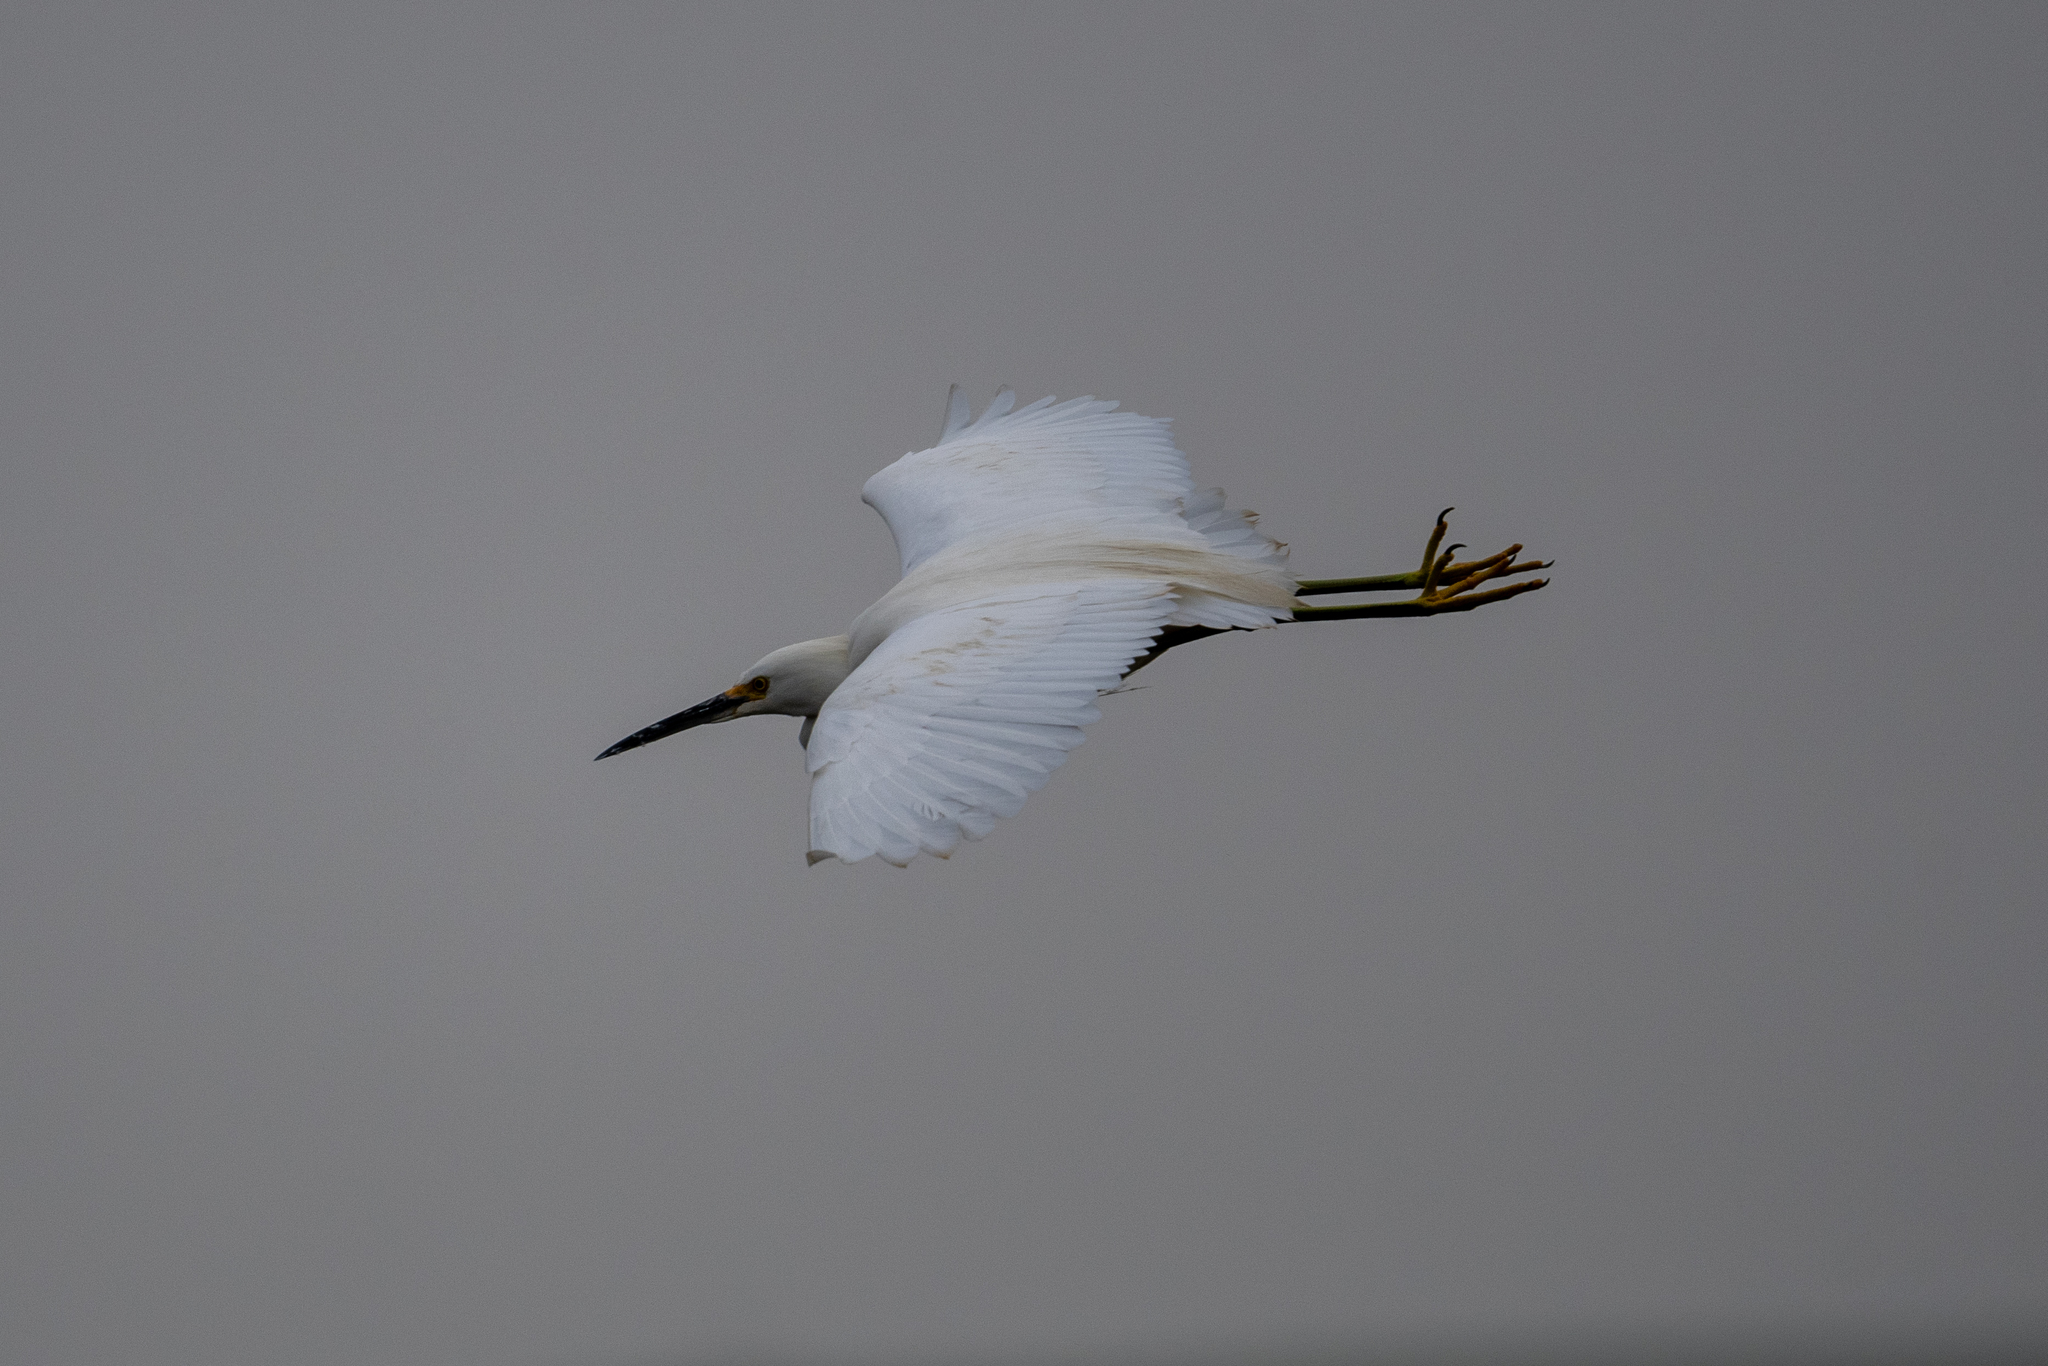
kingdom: Animalia
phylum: Chordata
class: Aves
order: Pelecaniformes
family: Ardeidae
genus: Egretta
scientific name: Egretta thula
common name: Snowy egret
